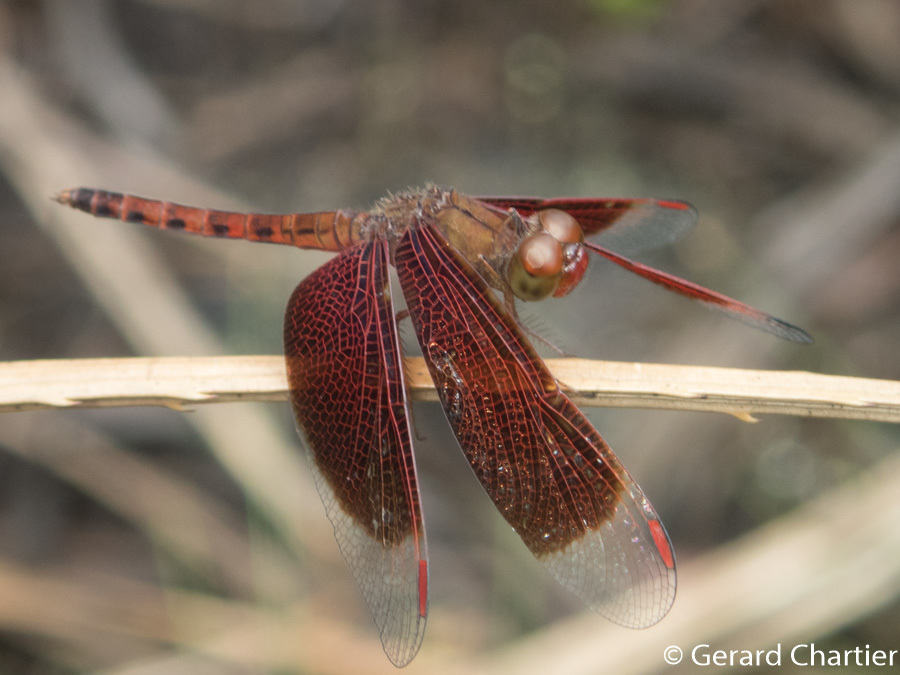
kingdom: Animalia
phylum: Arthropoda
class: Insecta
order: Odonata
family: Libellulidae
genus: Neurothemis
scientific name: Neurothemis fluctuans
